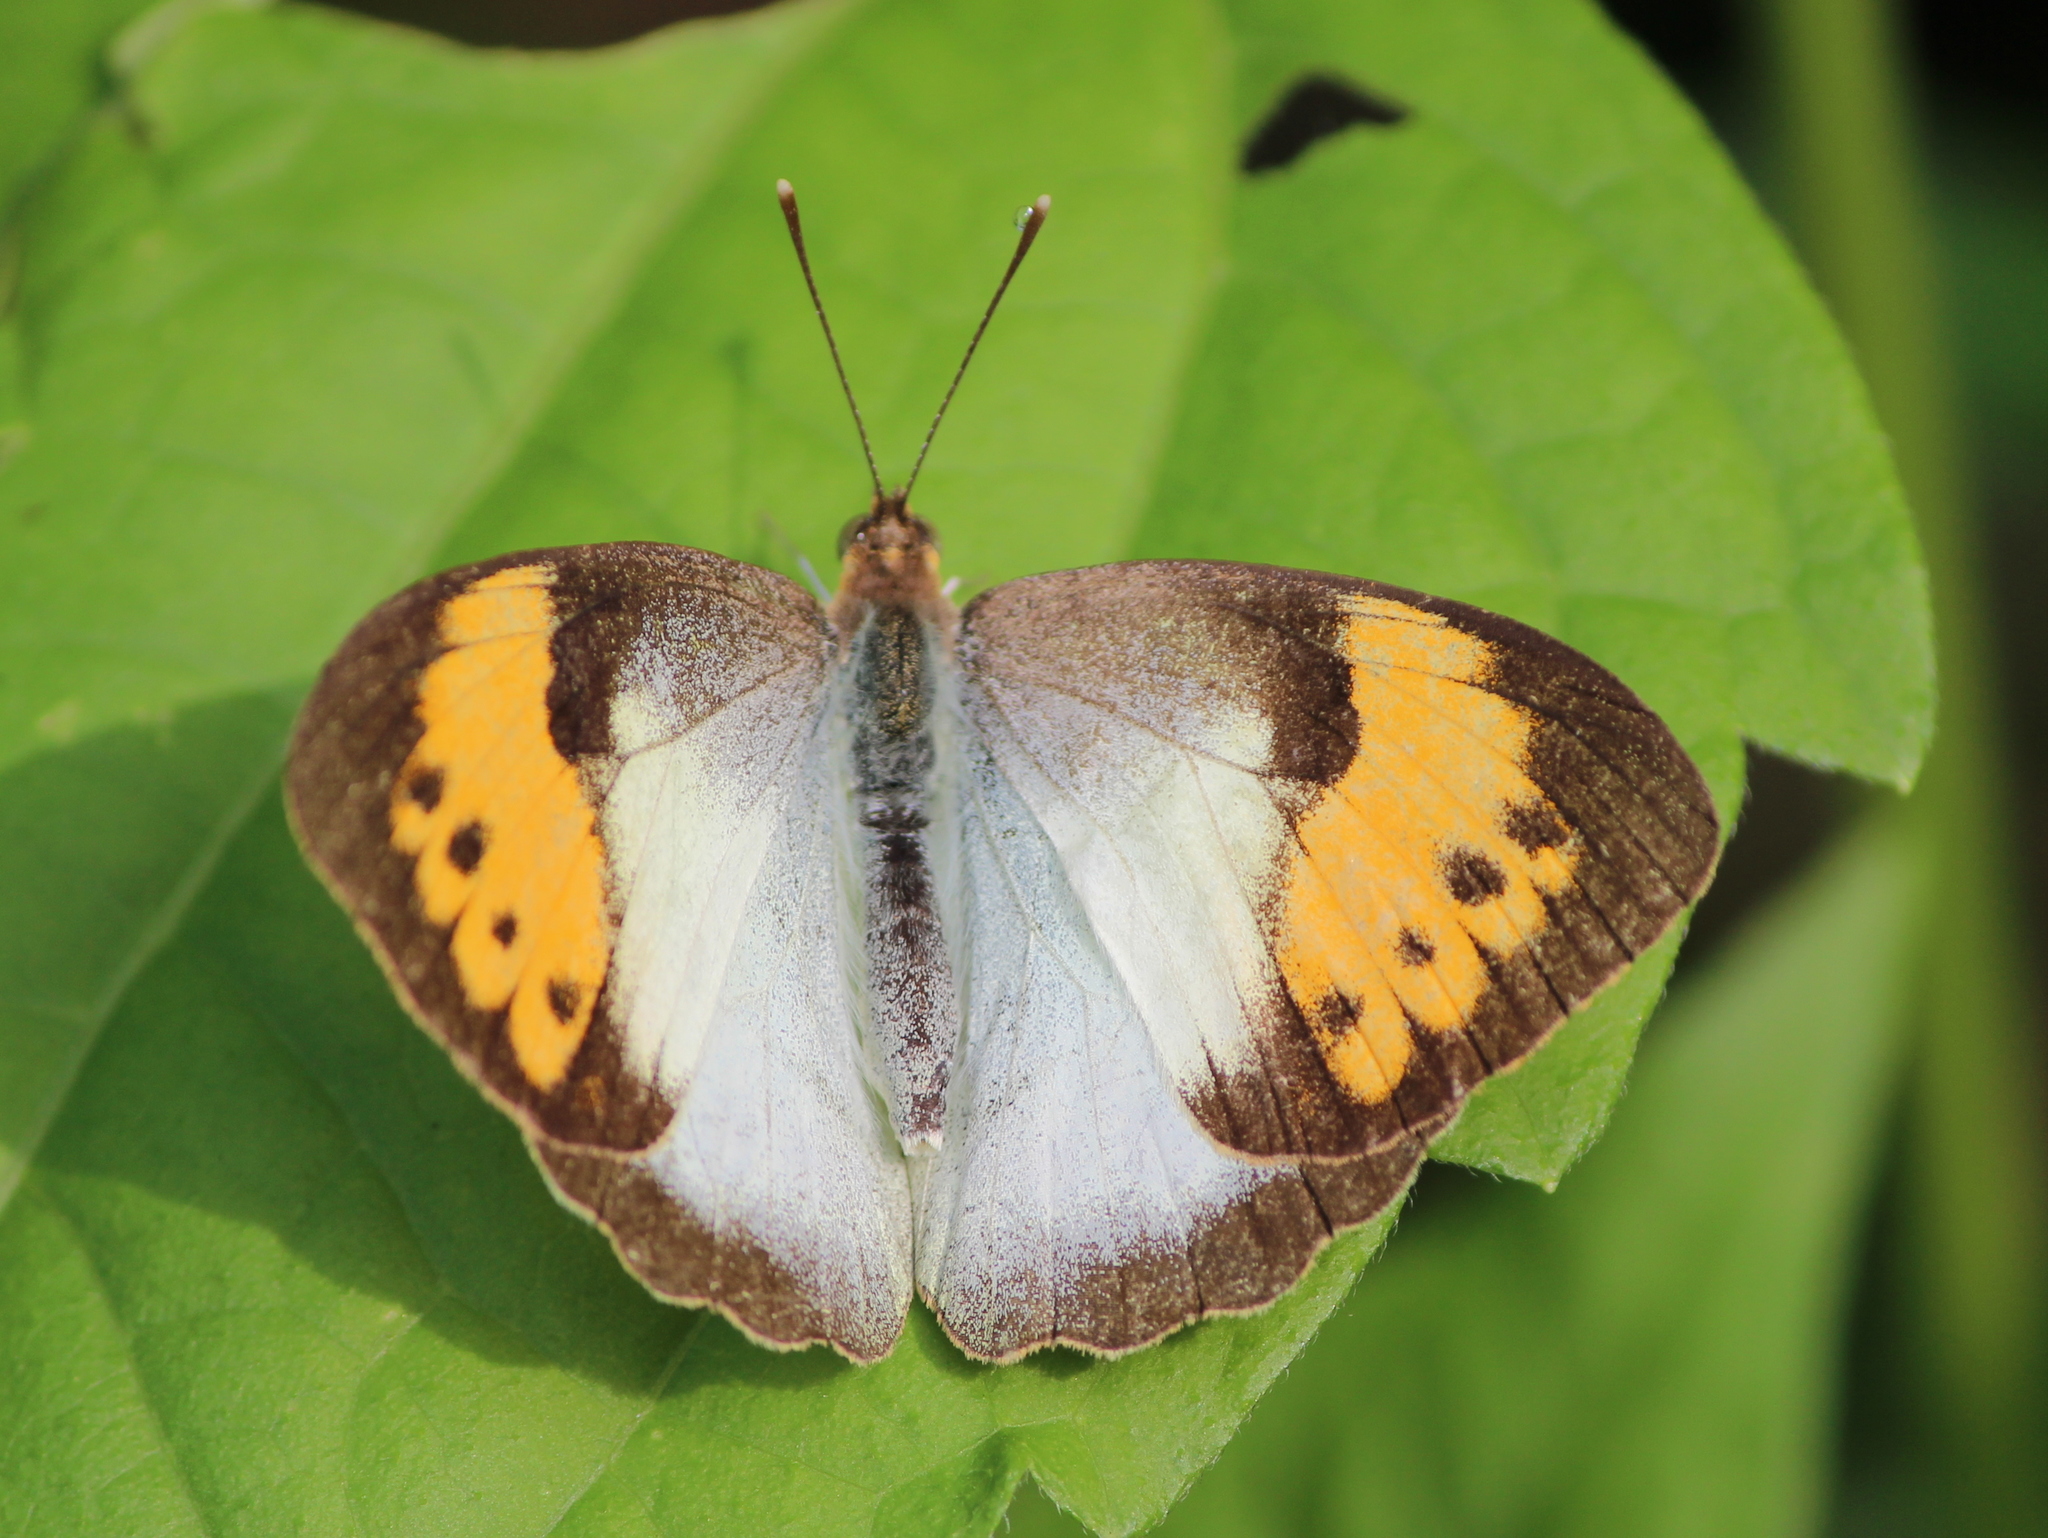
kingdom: Animalia
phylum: Arthropoda
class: Insecta
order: Lepidoptera
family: Pieridae
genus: Ixias
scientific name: Ixias marianne
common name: White orange tip
